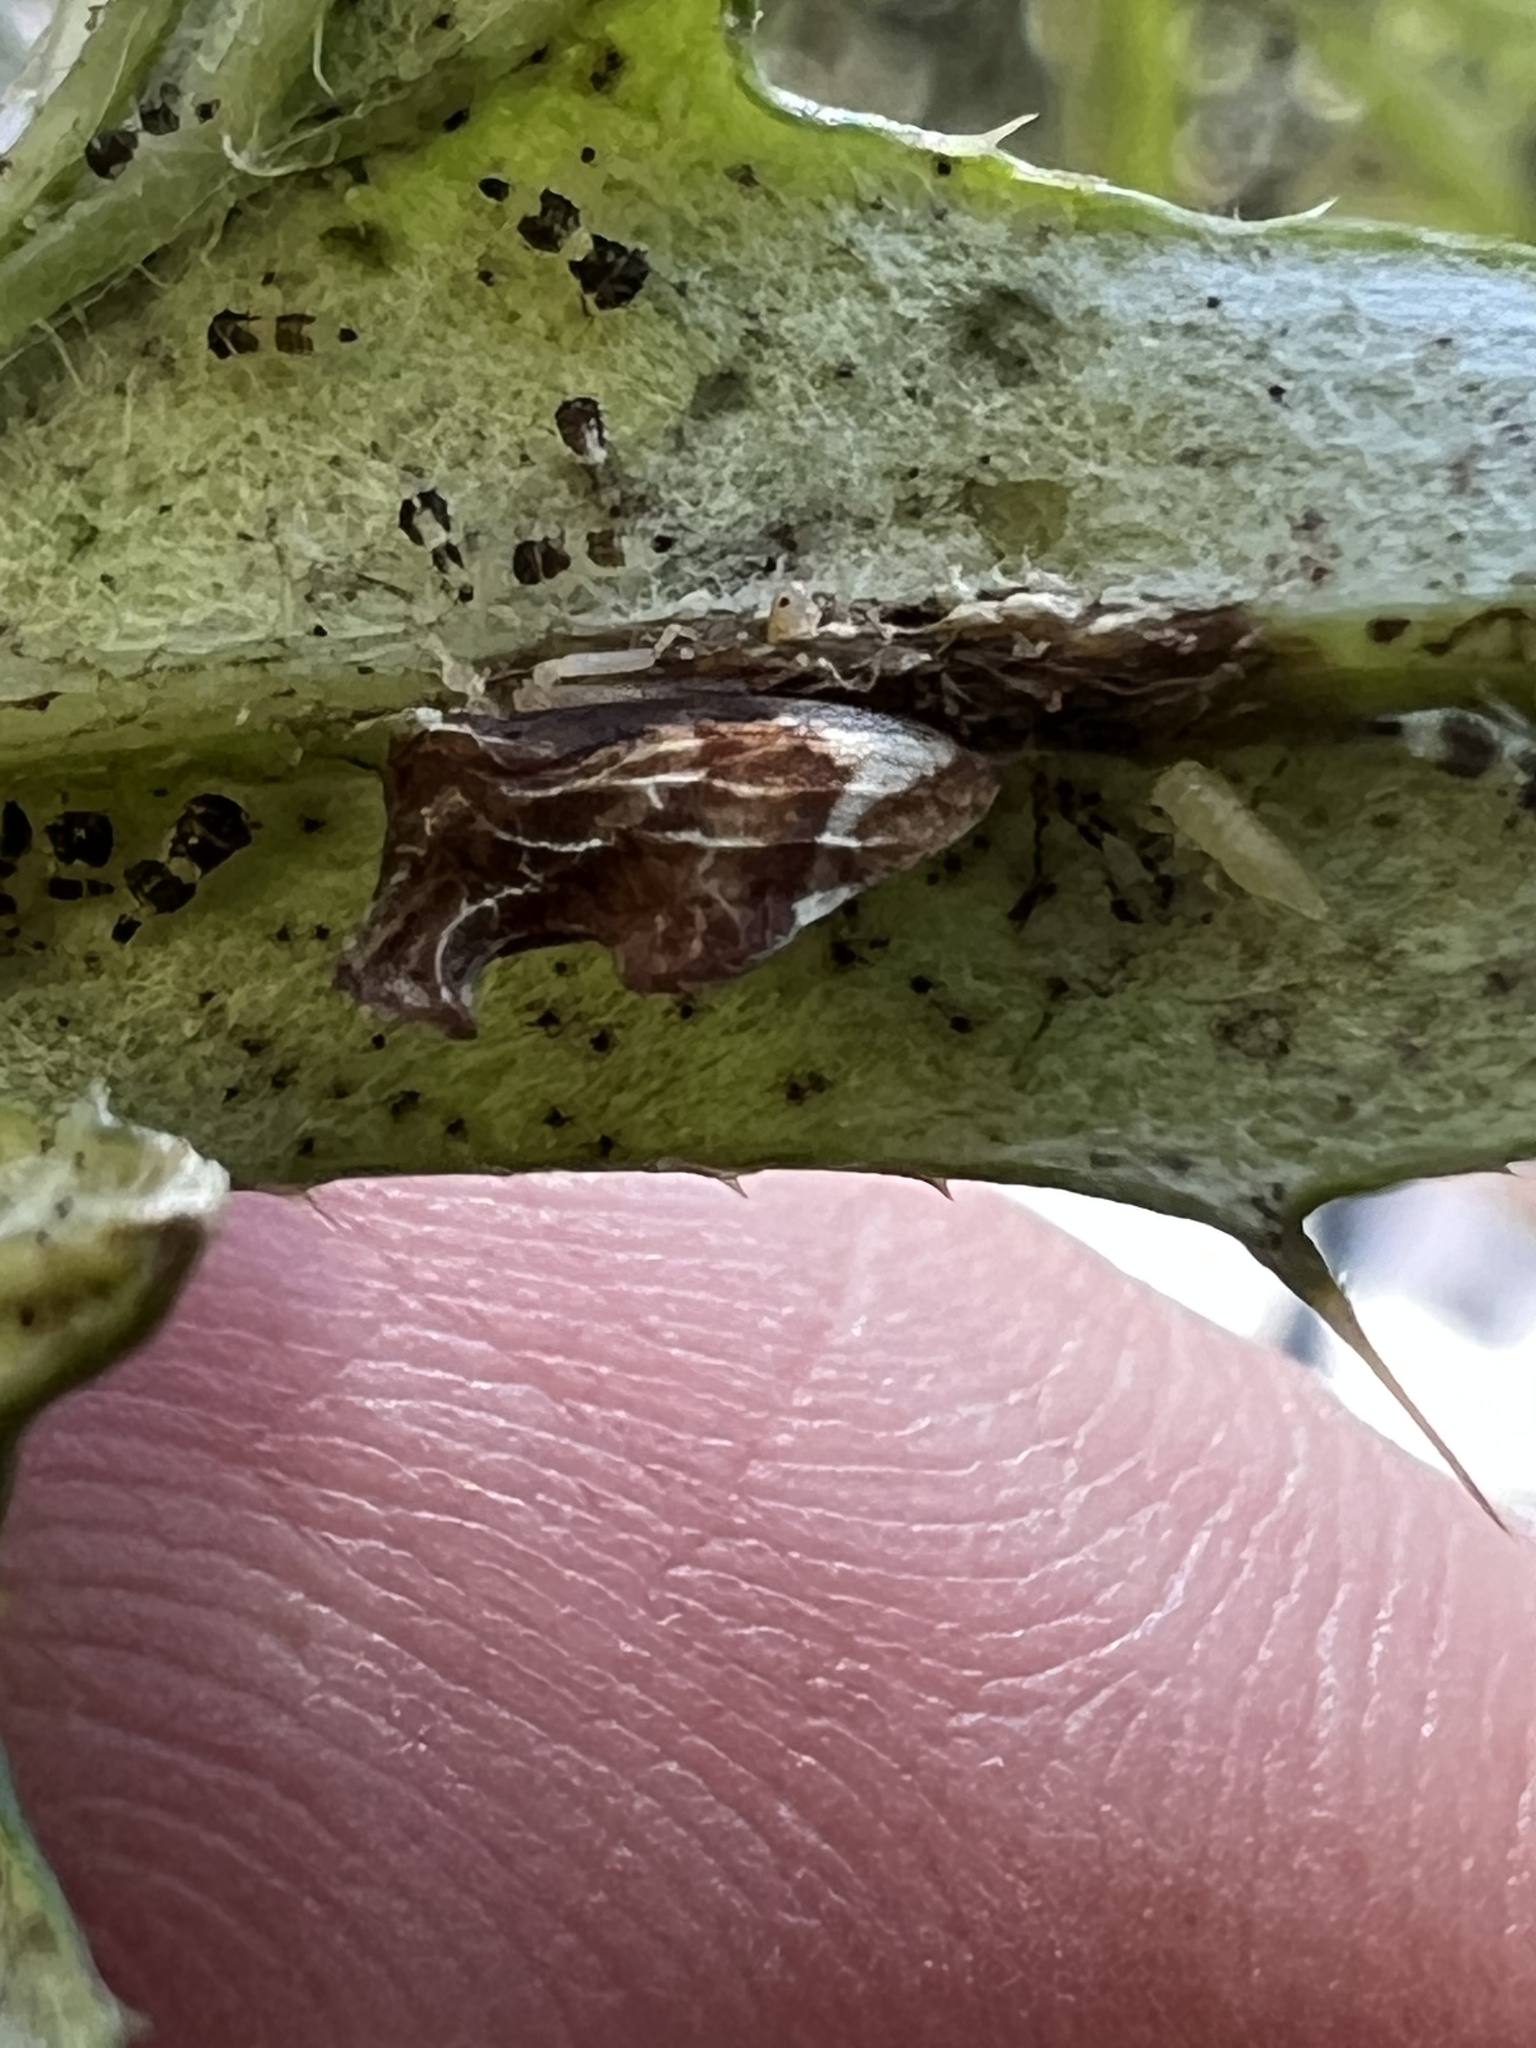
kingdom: Animalia
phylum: Arthropoda
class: Insecta
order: Hemiptera
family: Membracidae
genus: Entylia
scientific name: Entylia carinata
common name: Keeled treehopper
